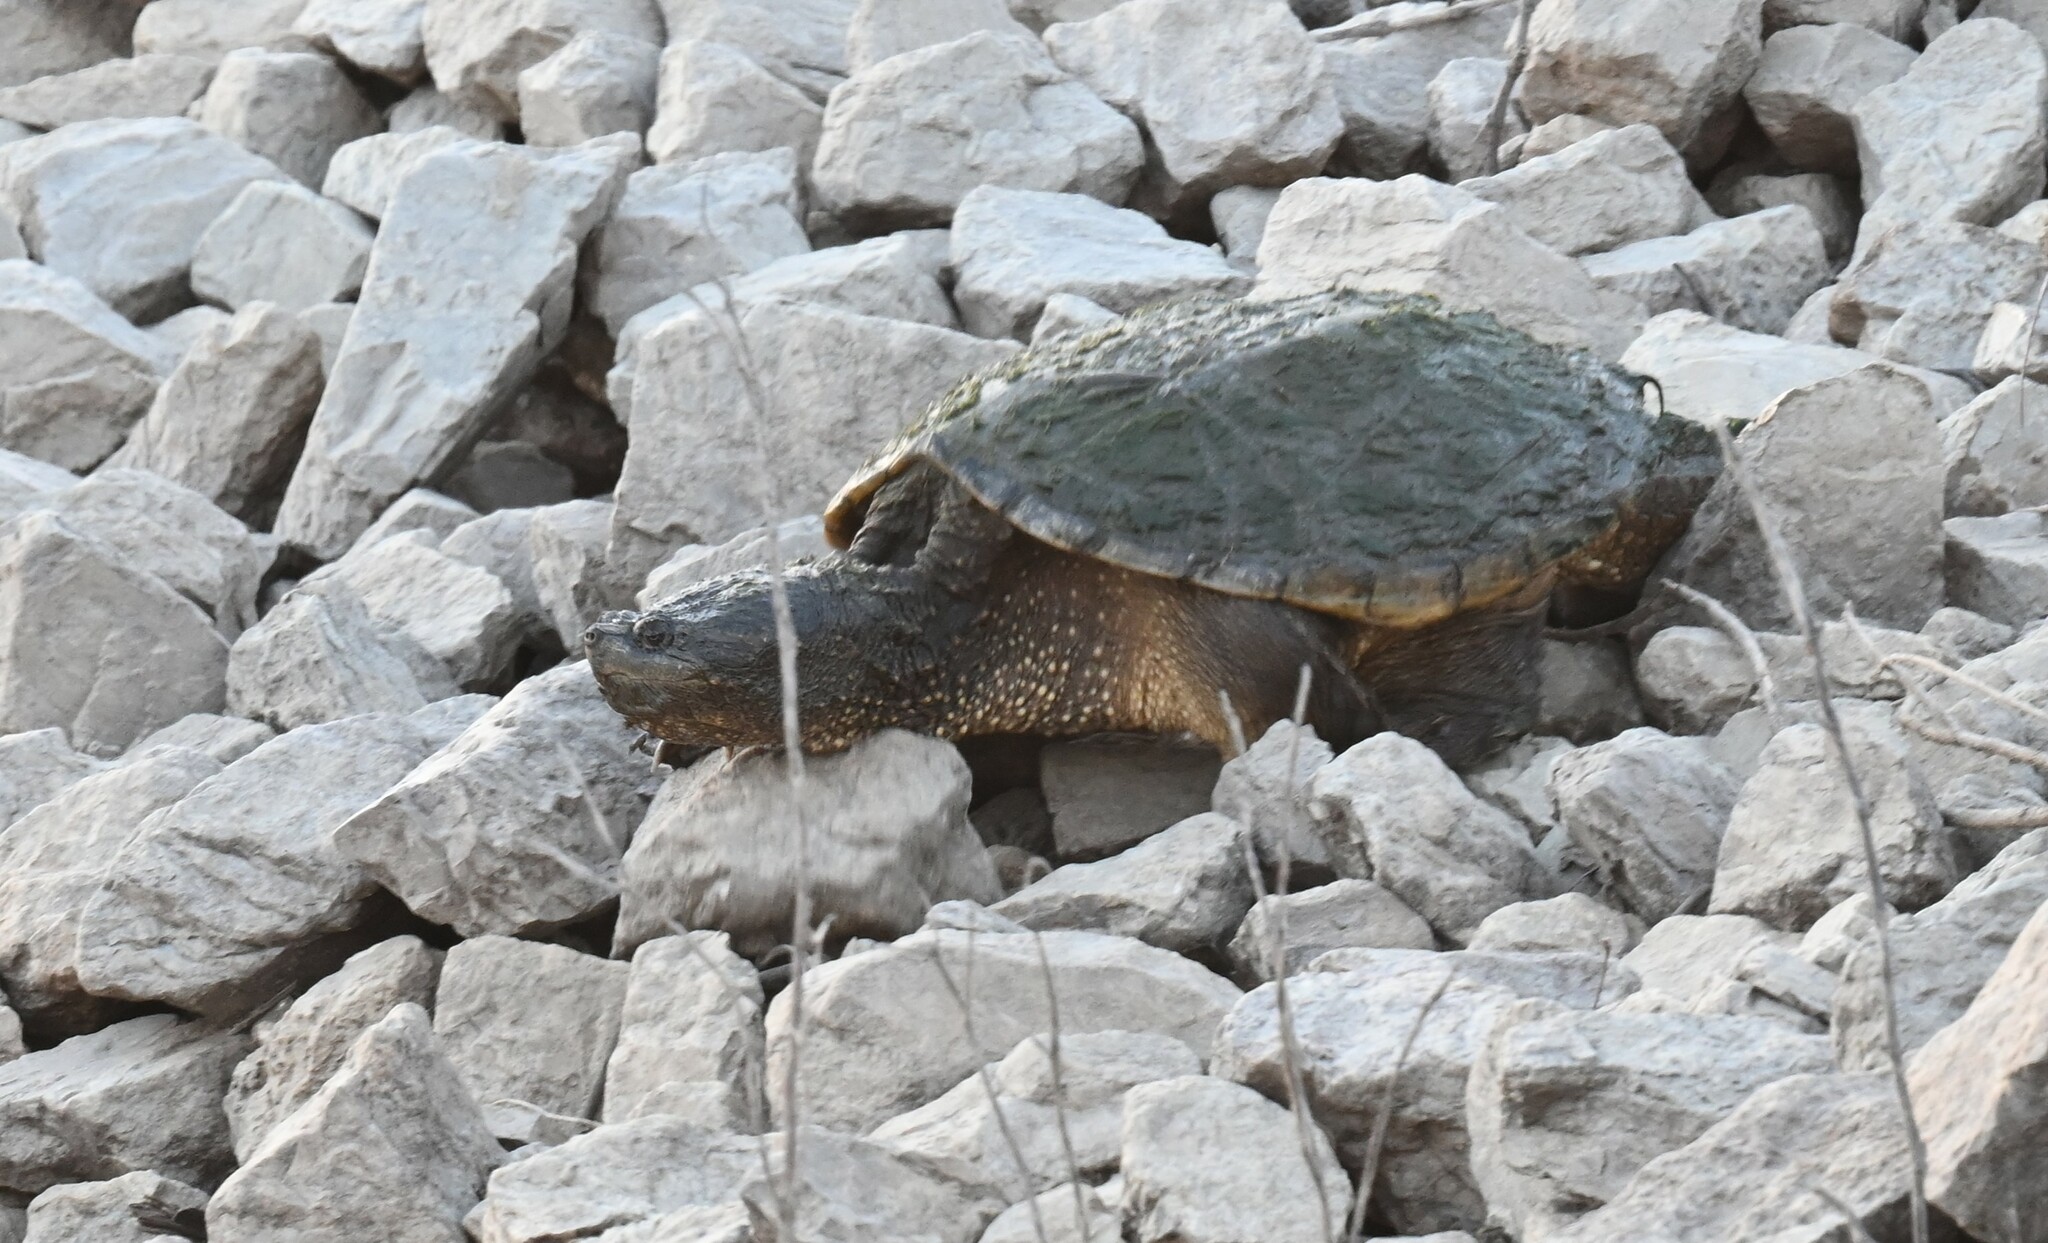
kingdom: Animalia
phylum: Chordata
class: Testudines
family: Chelydridae
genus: Chelydra
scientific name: Chelydra serpentina
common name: Common snapping turtle
